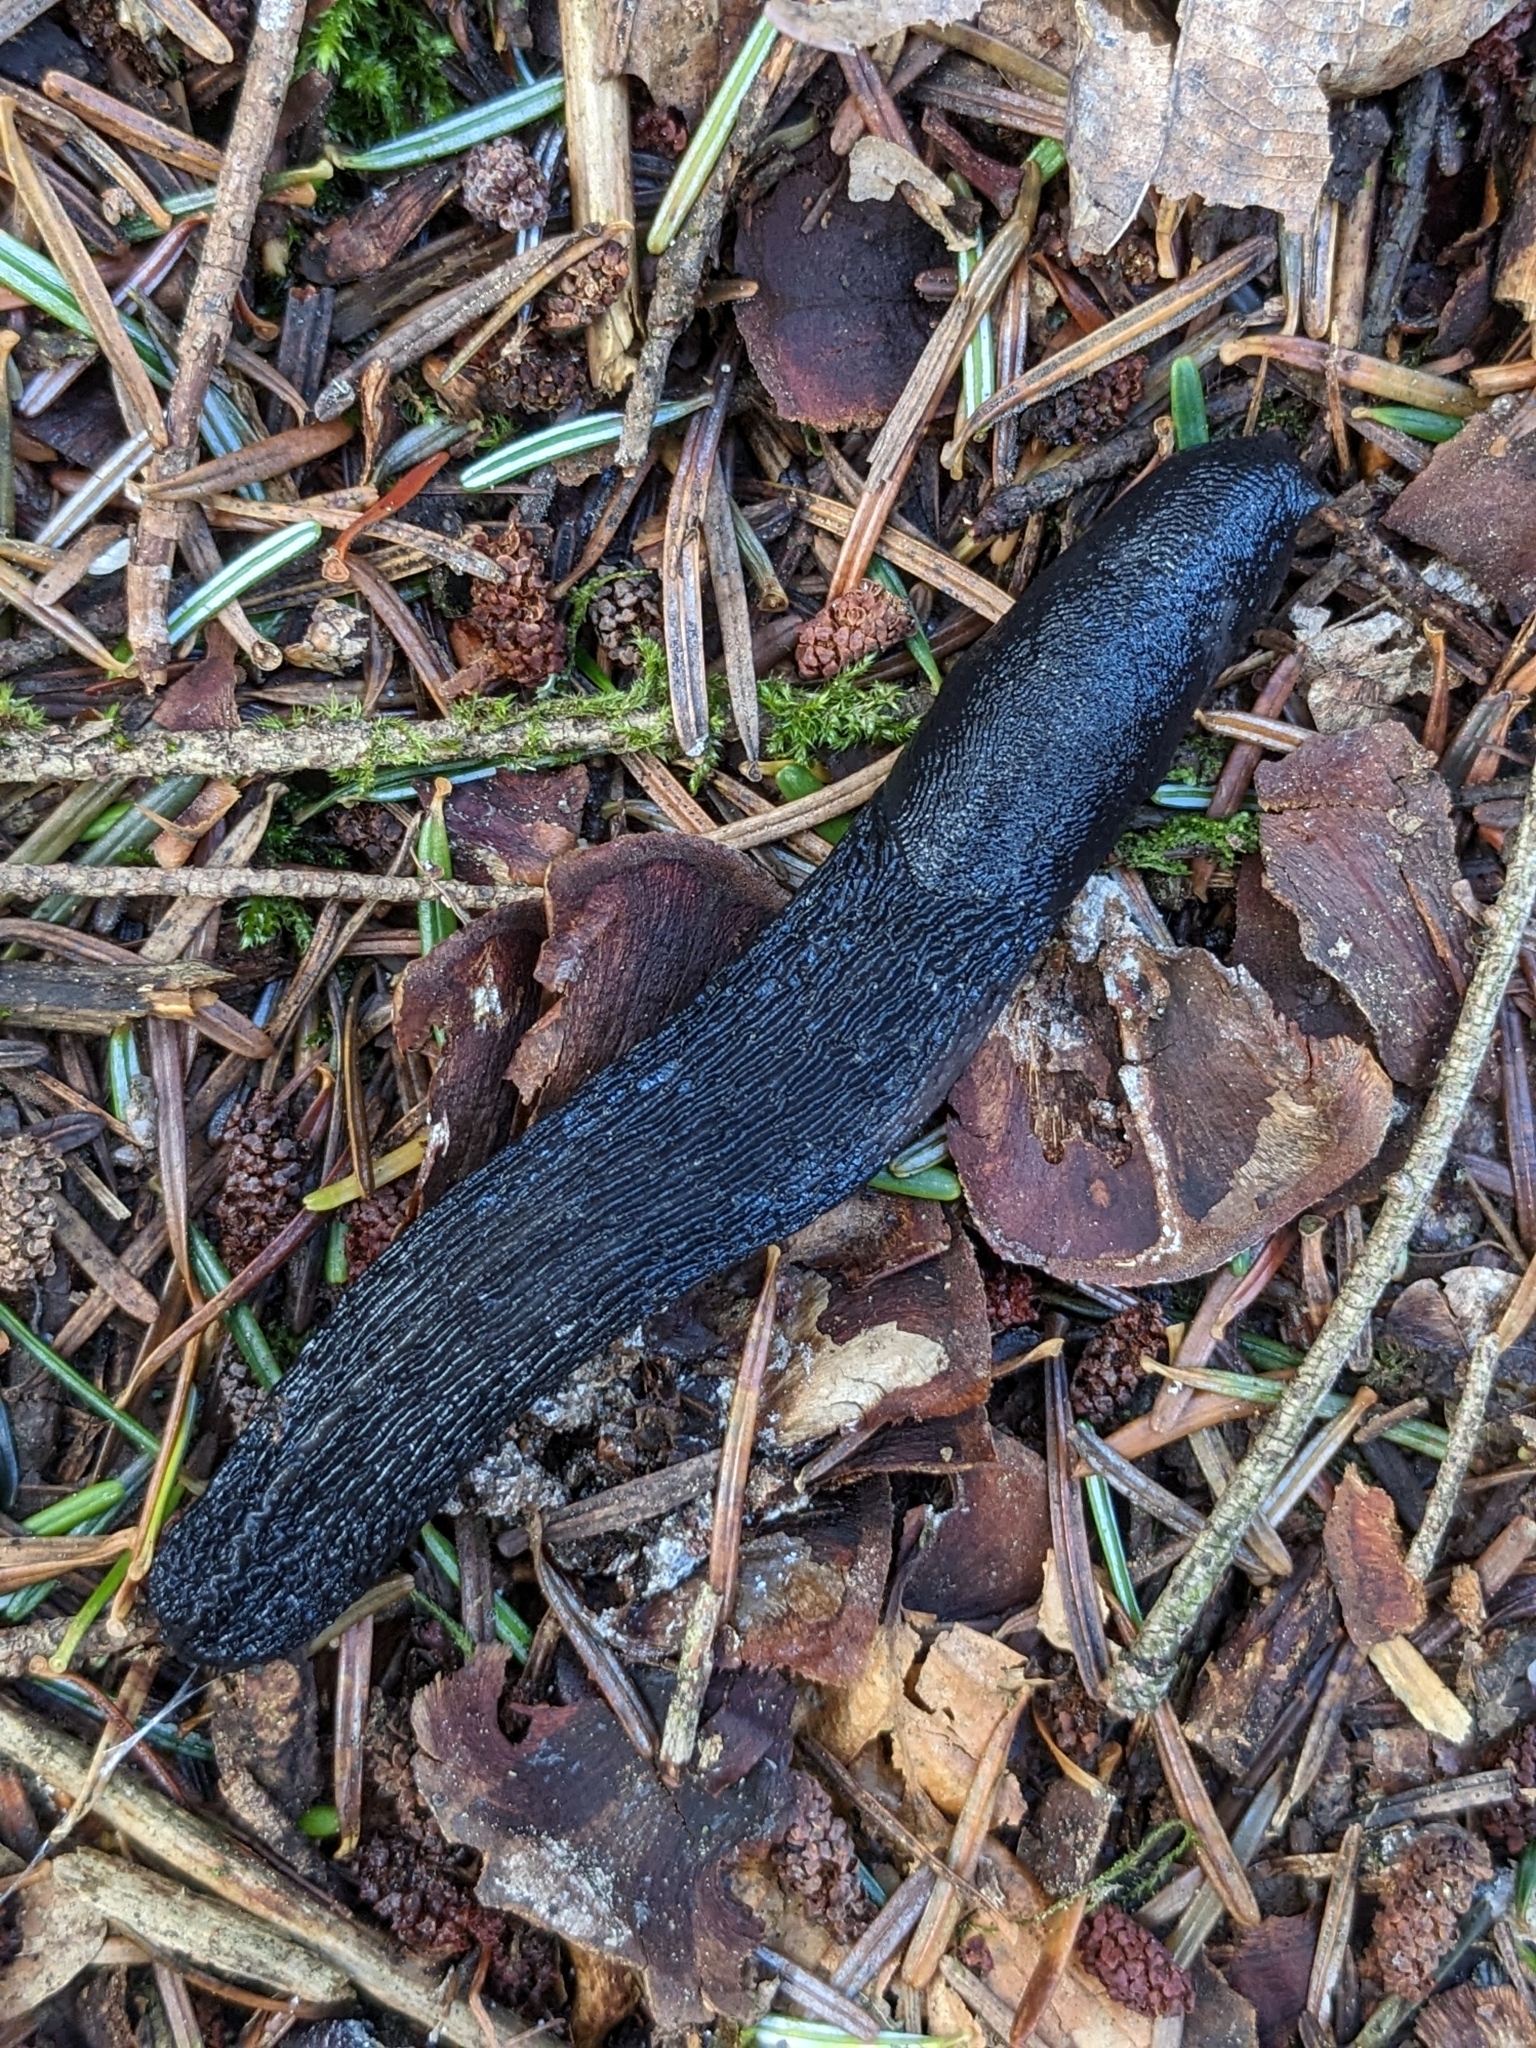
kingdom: Animalia
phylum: Mollusca
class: Gastropoda
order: Stylommatophora
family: Limacidae
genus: Limax
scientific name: Limax cinereoniger
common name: Ash-black slug
